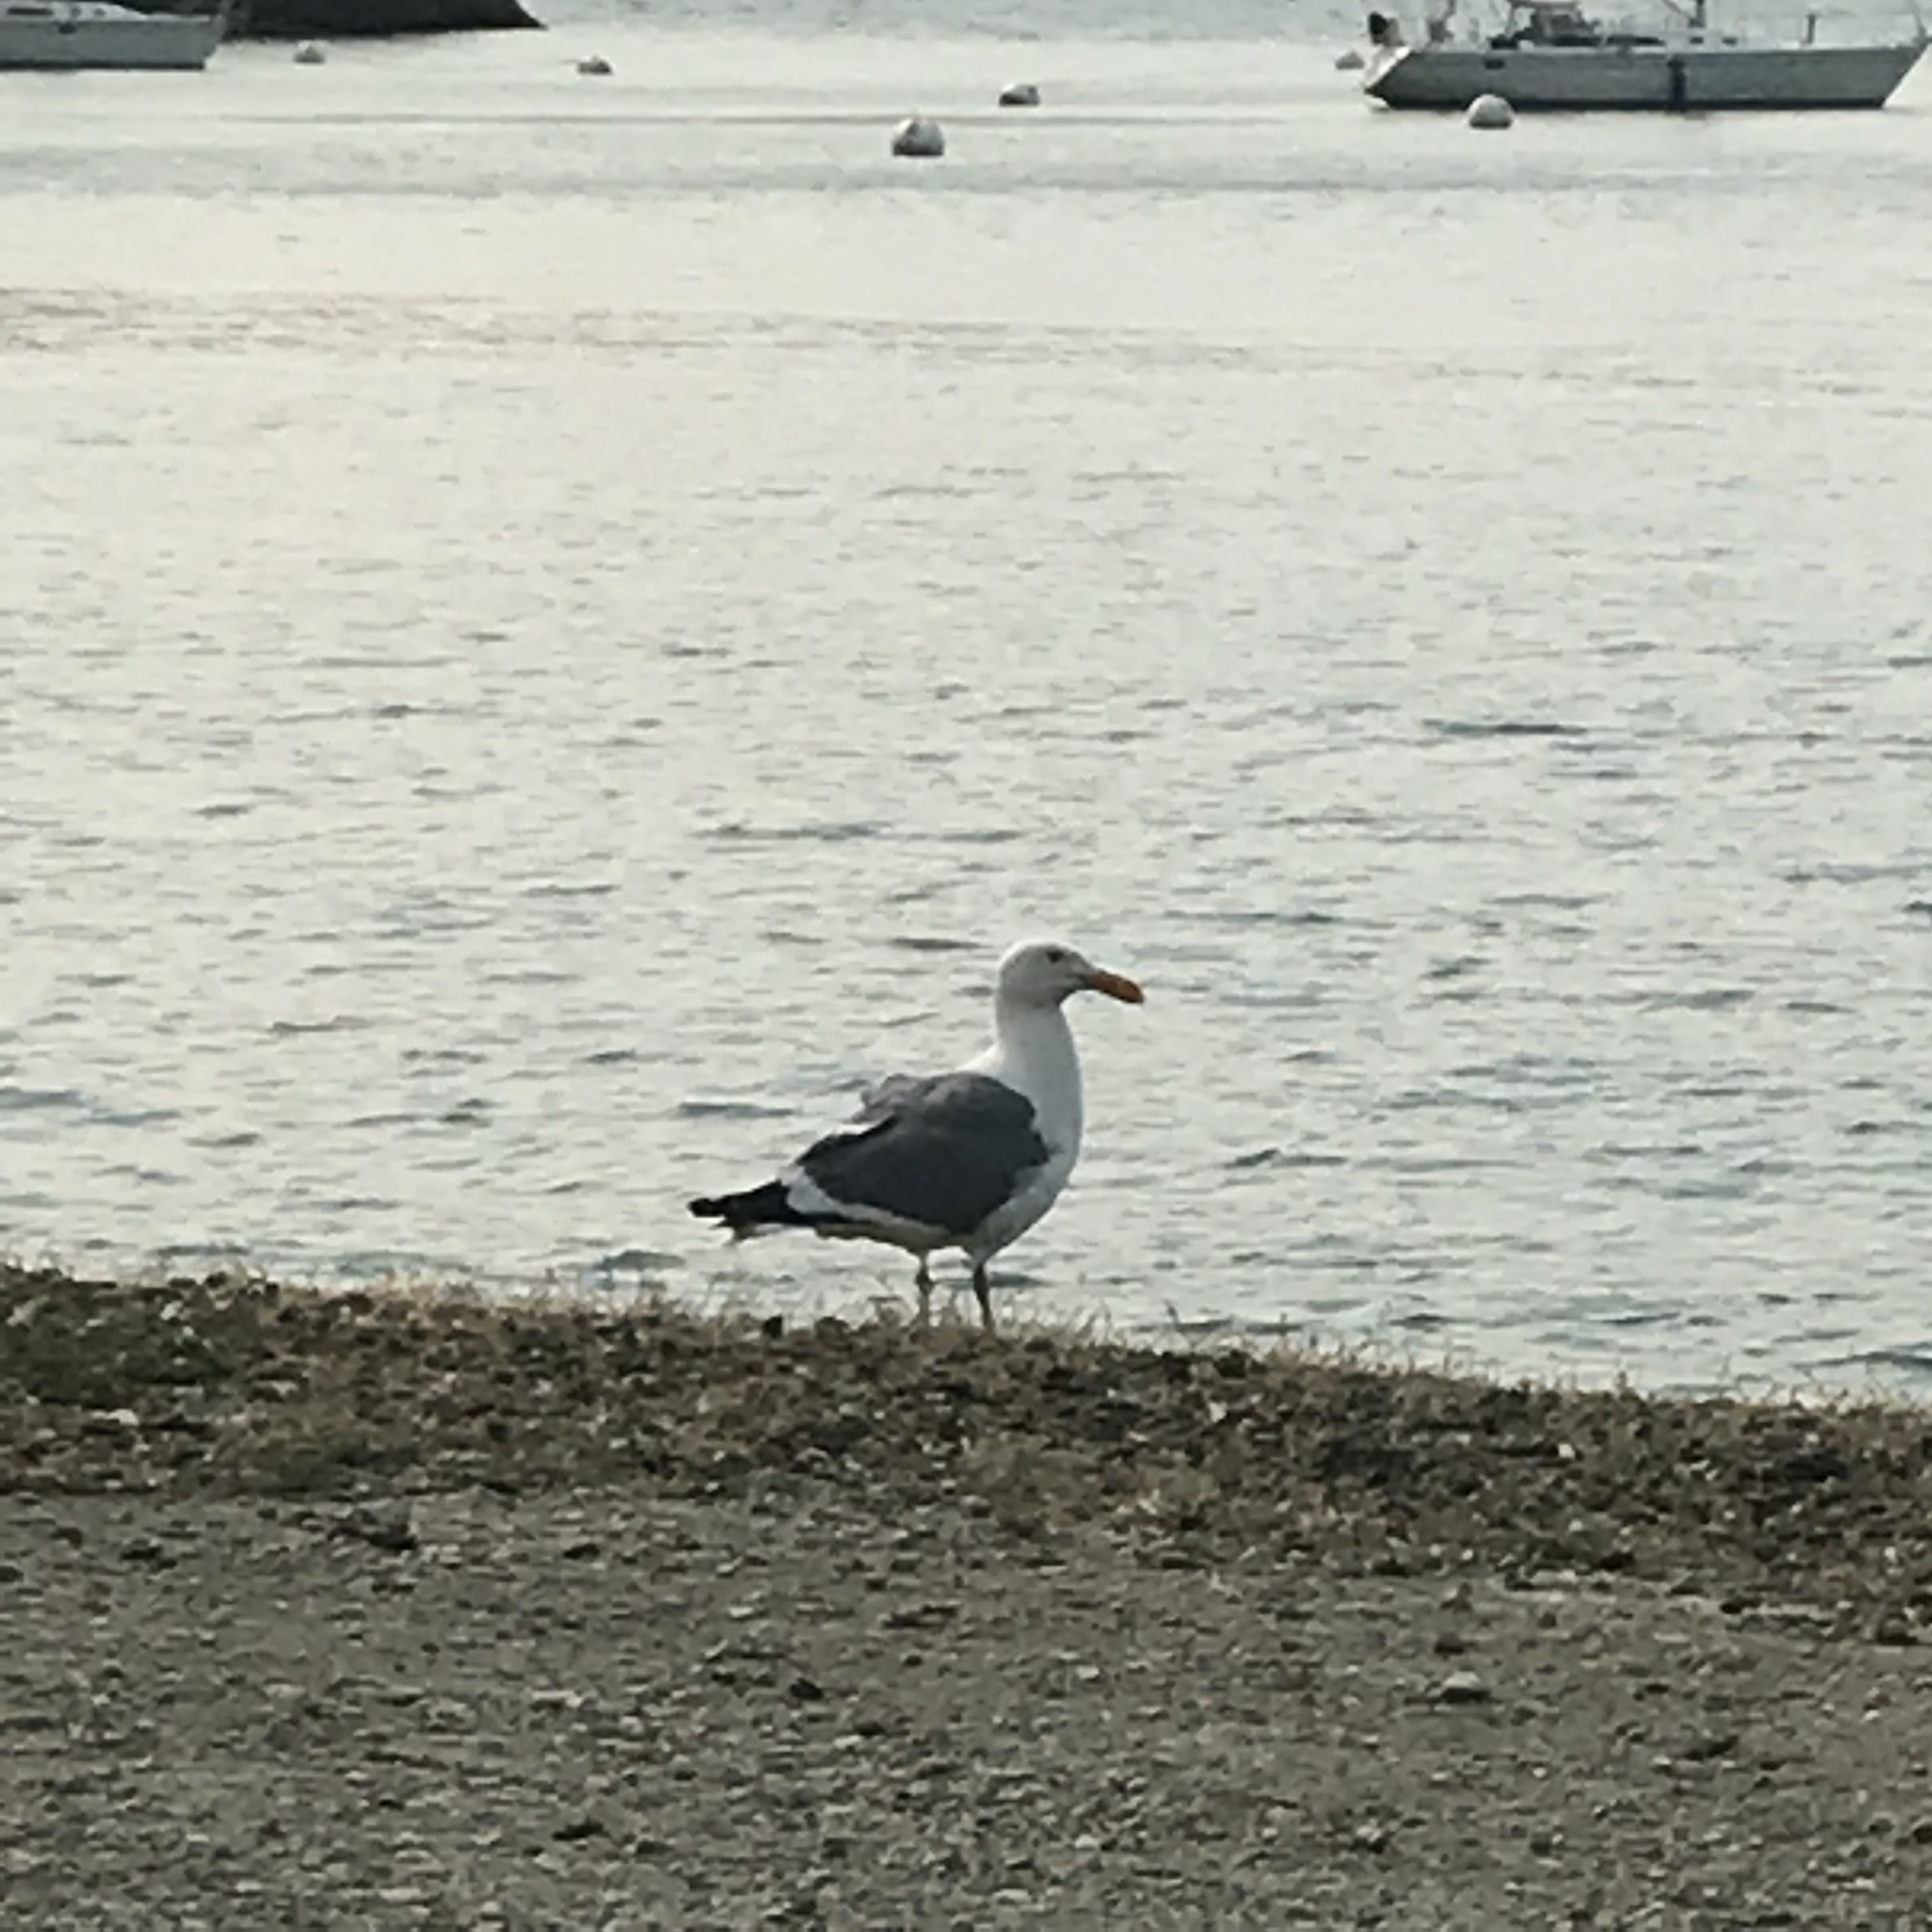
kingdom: Animalia
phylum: Chordata
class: Aves
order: Charadriiformes
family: Laridae
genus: Larus
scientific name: Larus occidentalis
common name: Western gull
